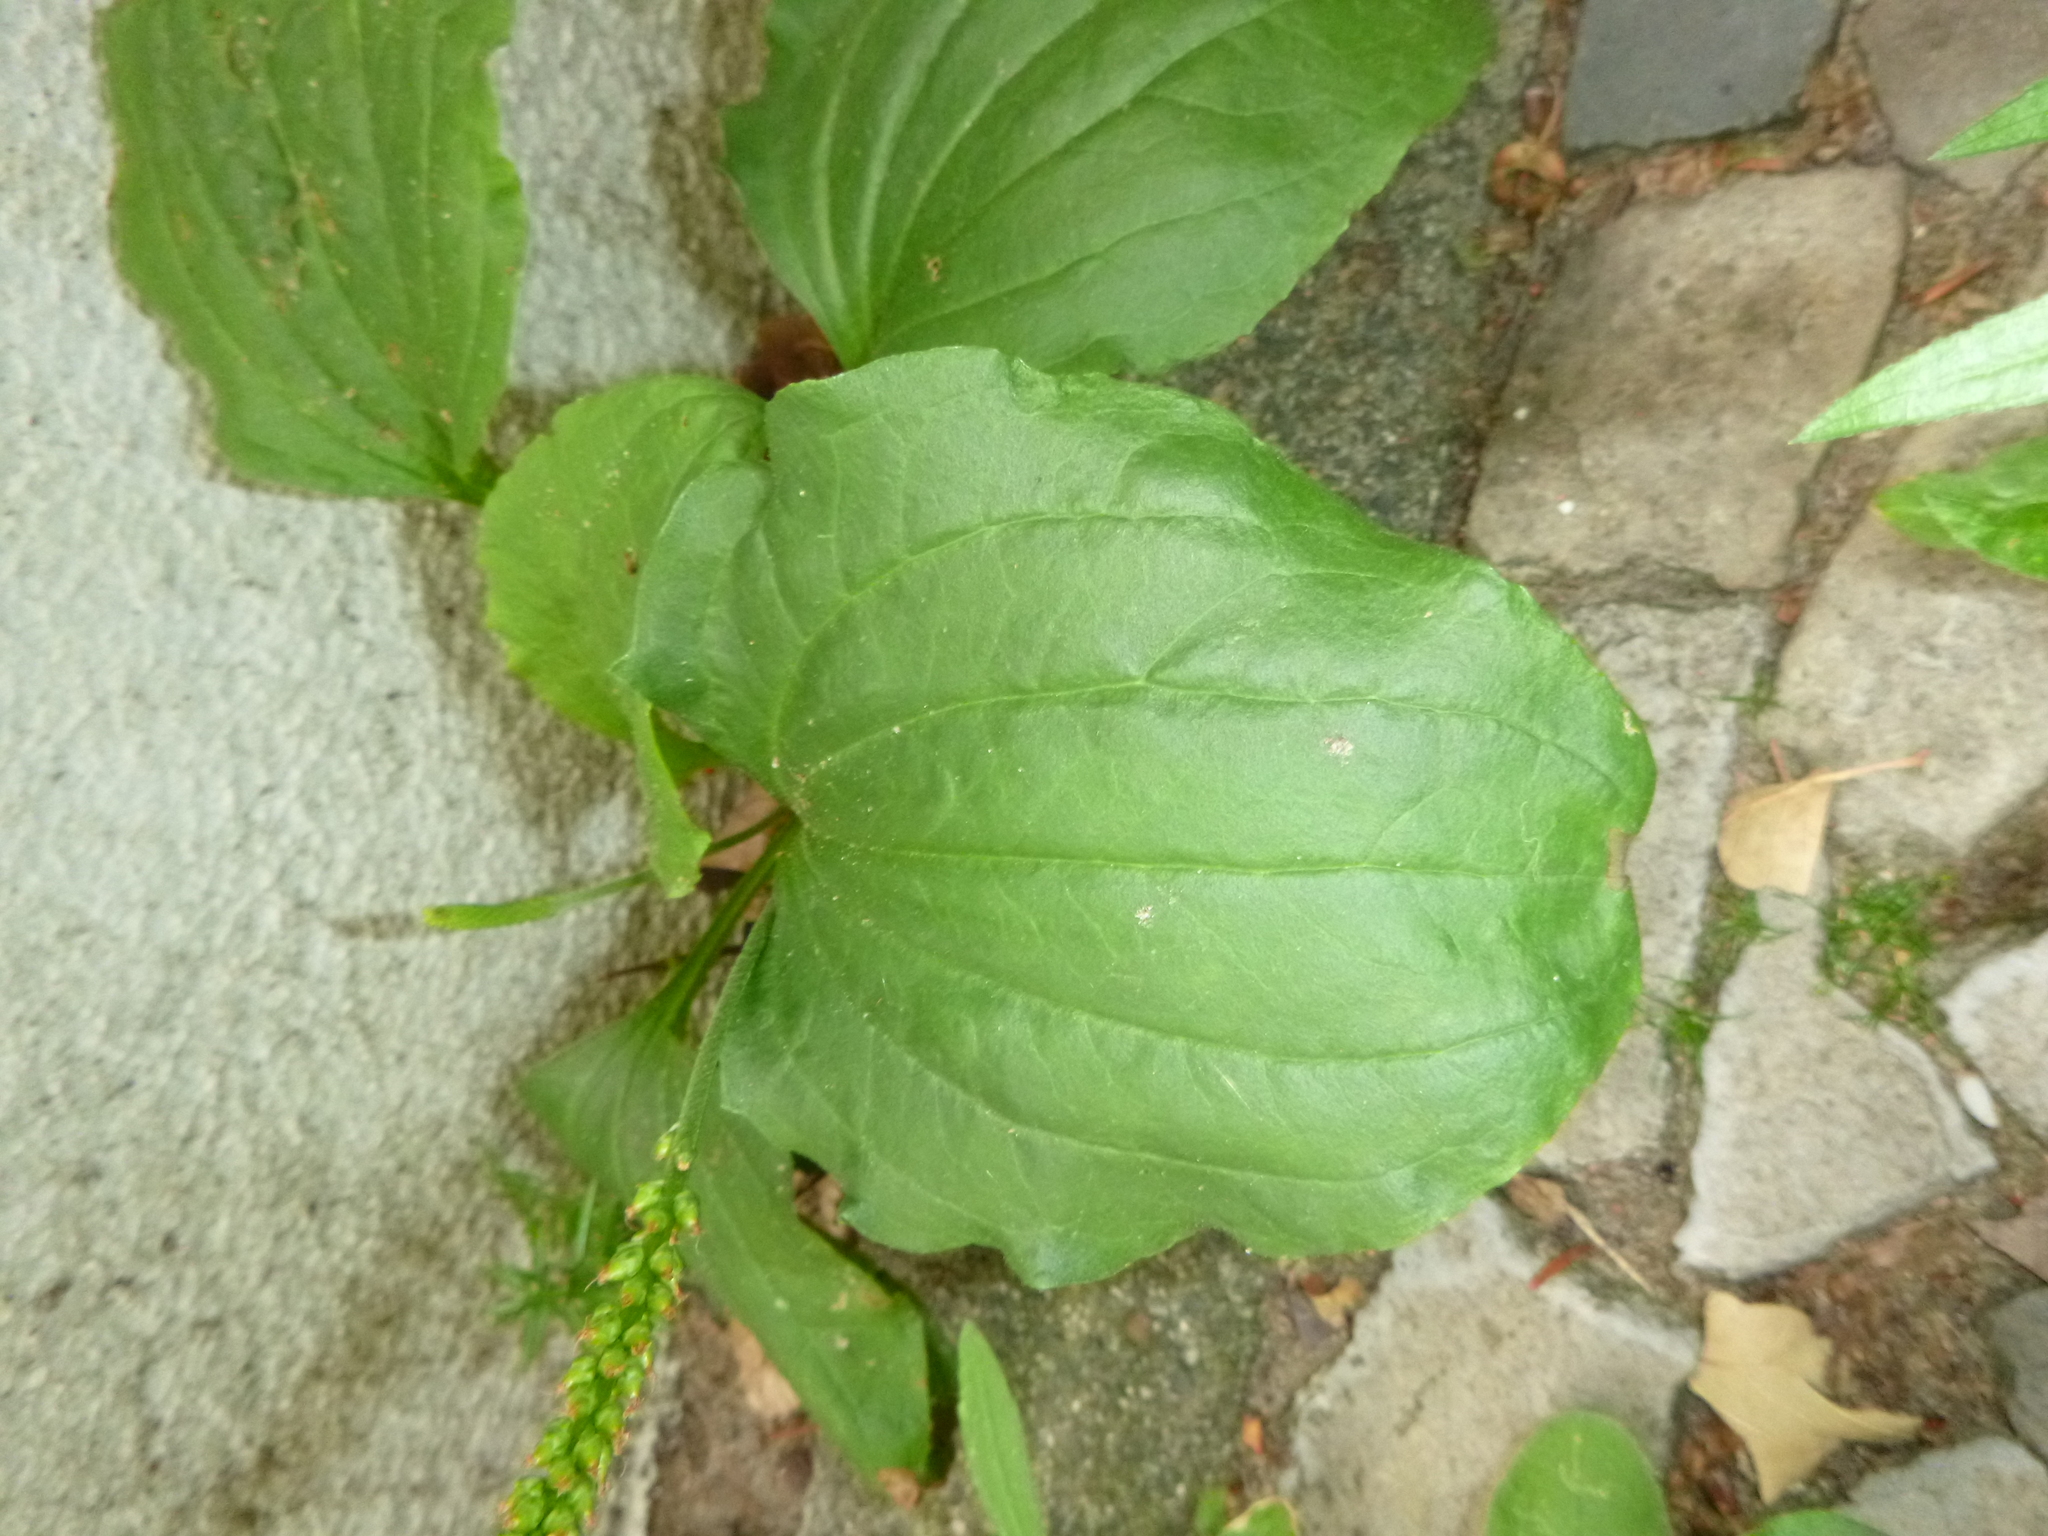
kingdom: Plantae
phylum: Tracheophyta
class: Magnoliopsida
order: Lamiales
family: Plantaginaceae
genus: Plantago
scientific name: Plantago major
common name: Common plantain
